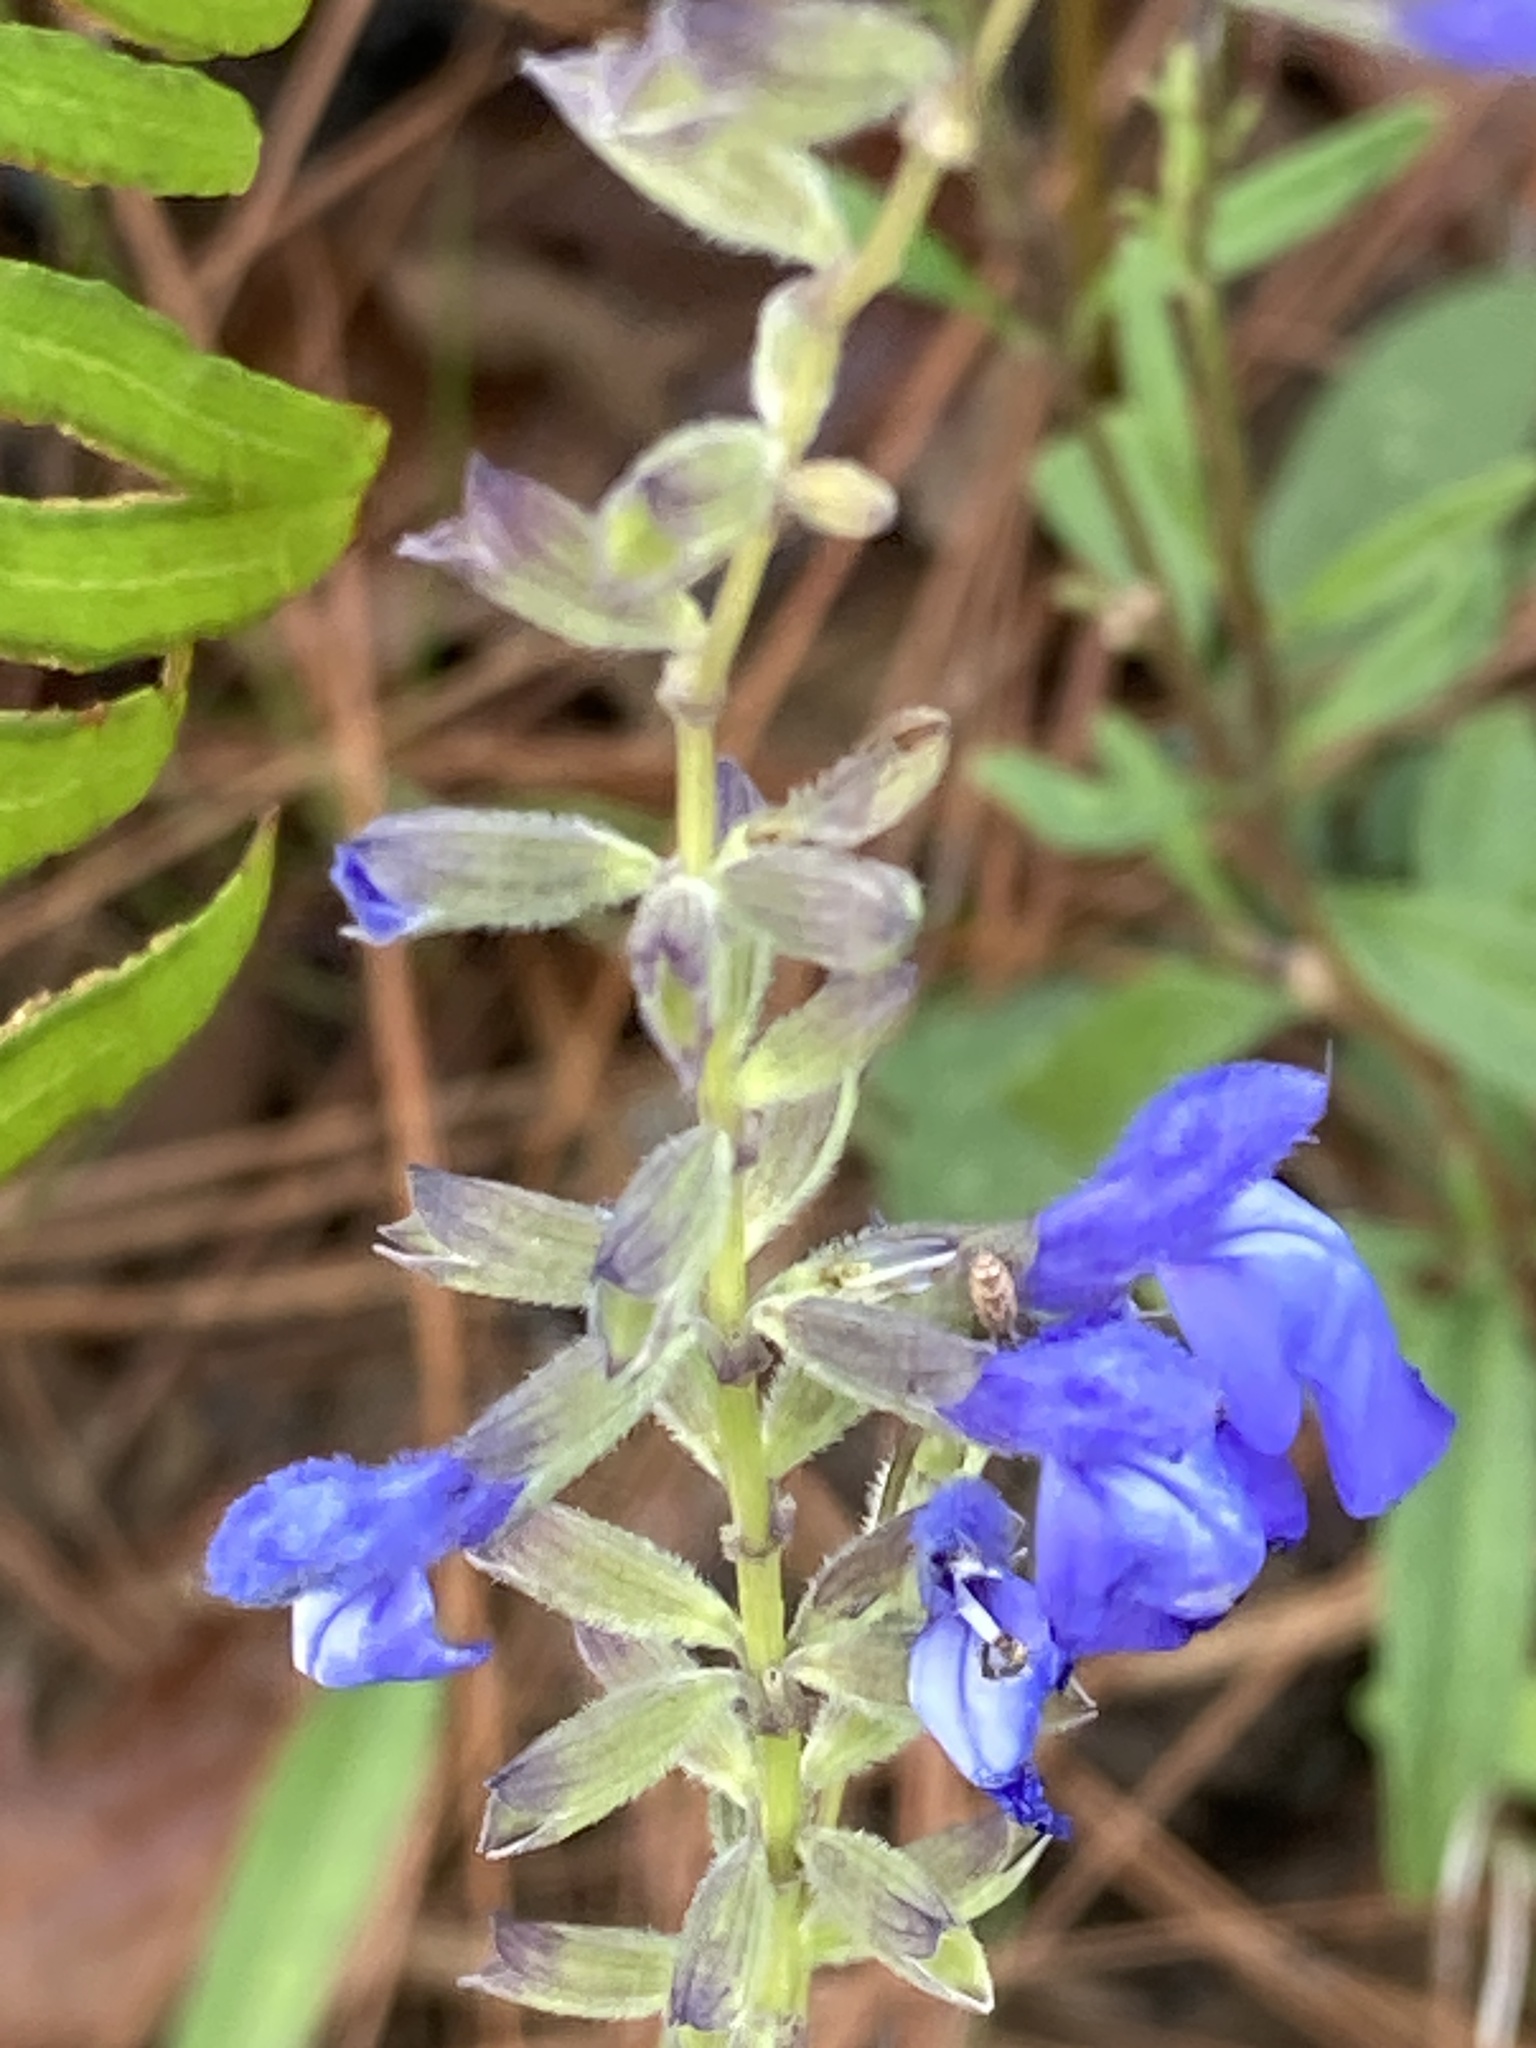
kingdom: Plantae
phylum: Tracheophyta
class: Magnoliopsida
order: Lamiales
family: Lamiaceae
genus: Salvia
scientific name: Salvia azurea
